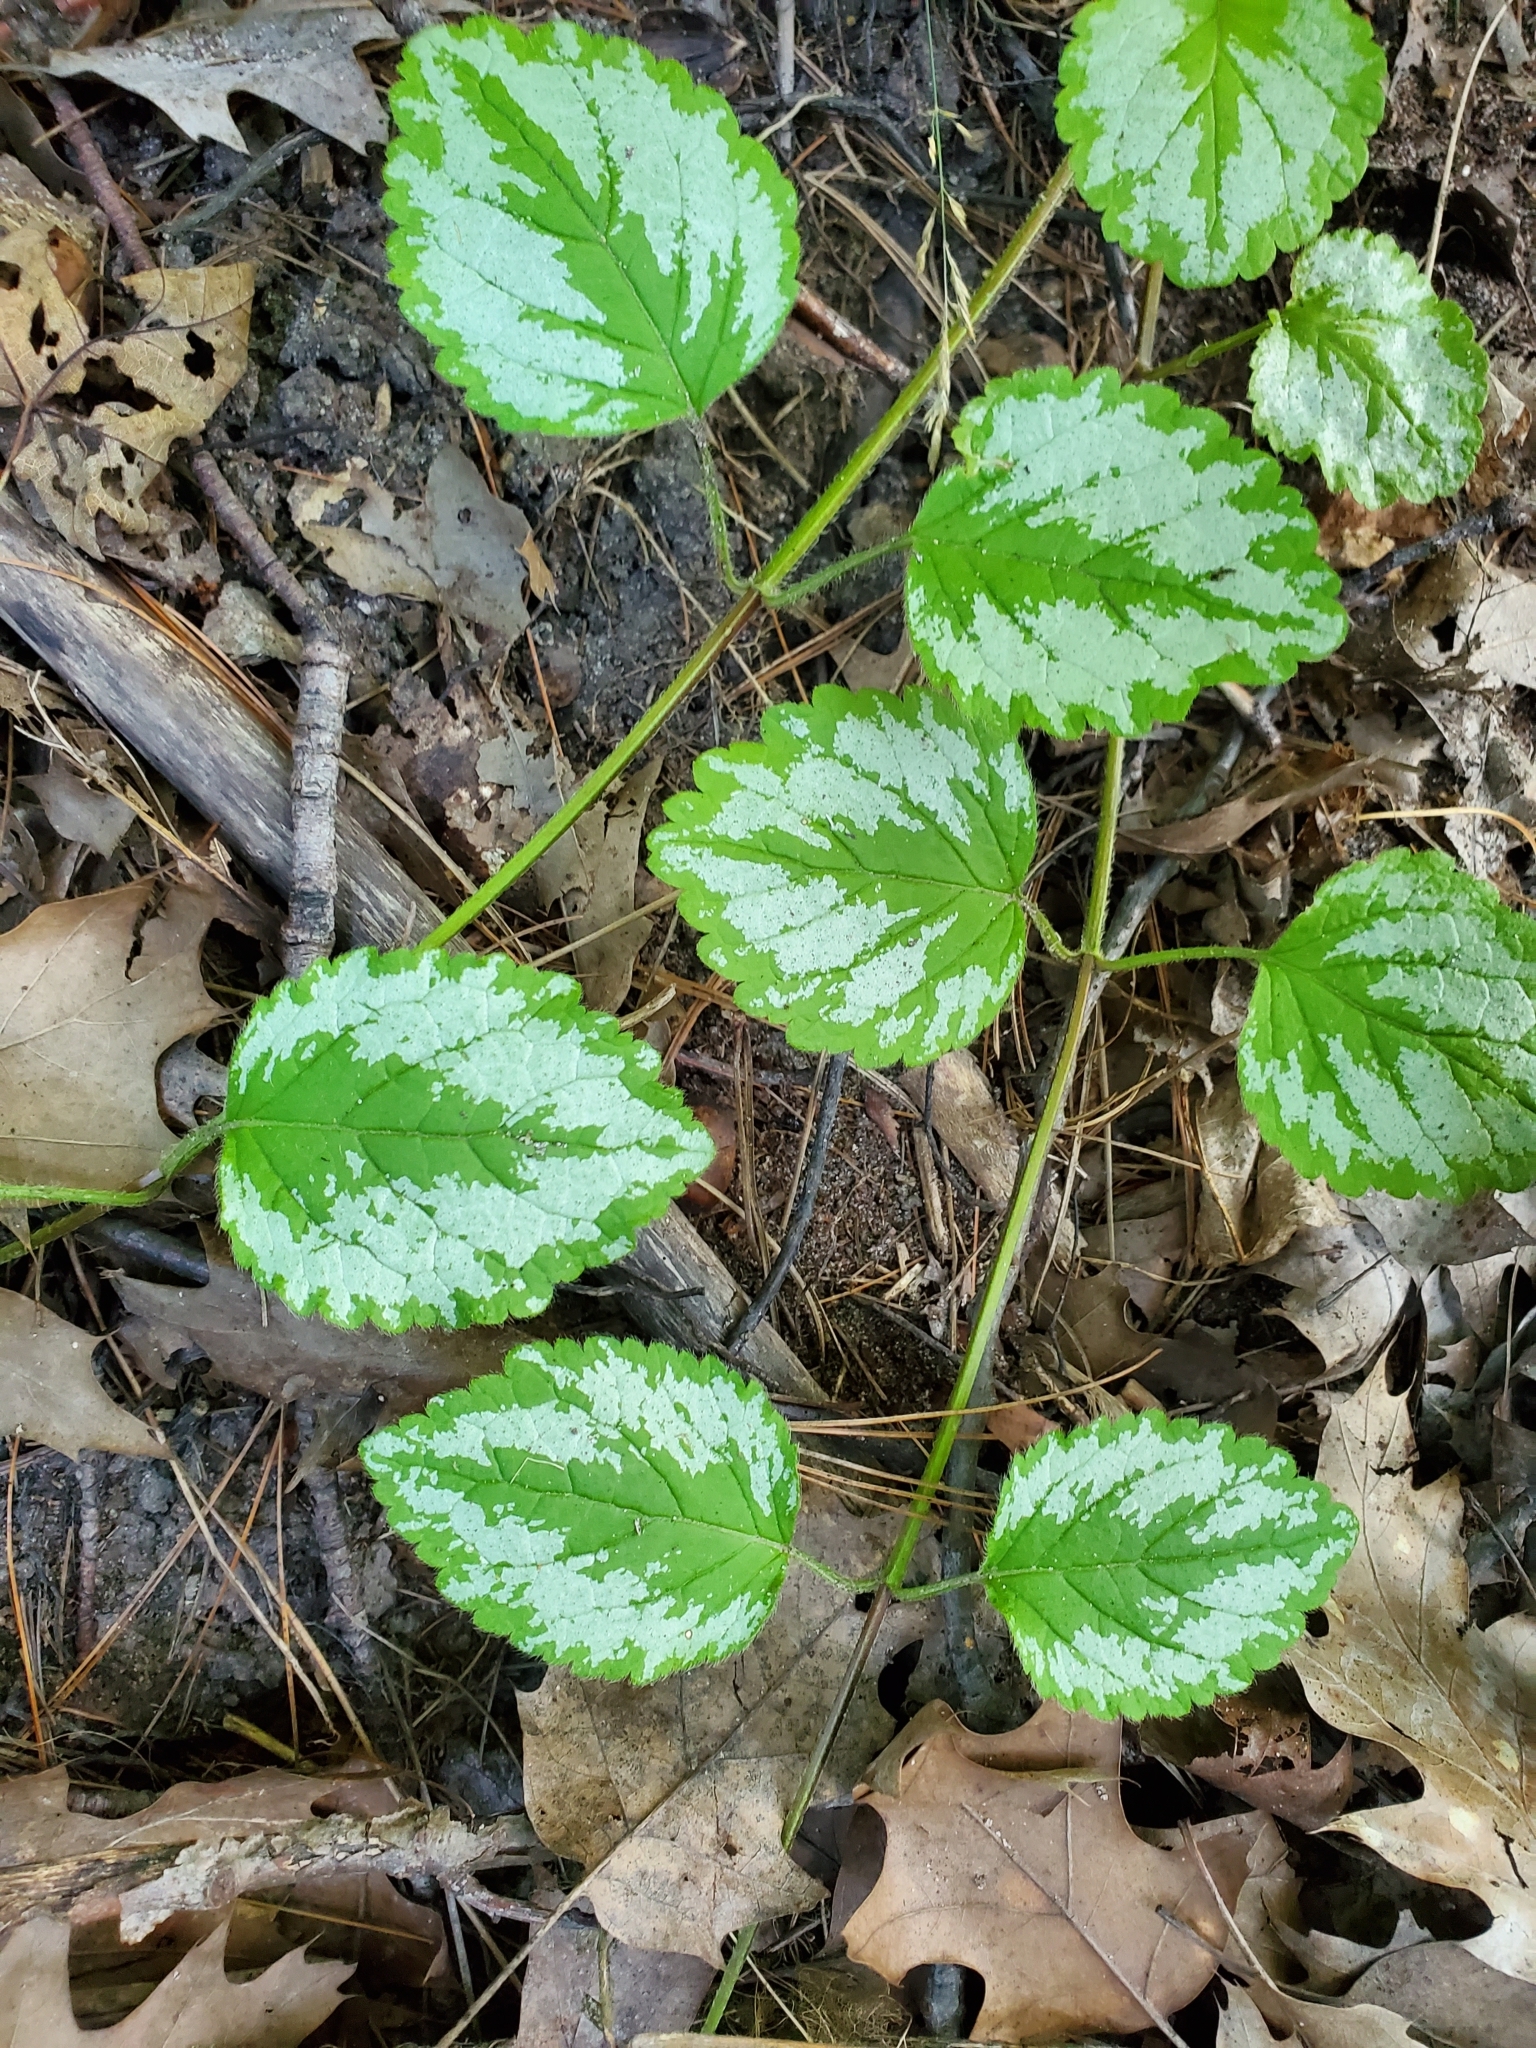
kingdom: Plantae
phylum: Tracheophyta
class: Magnoliopsida
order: Lamiales
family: Lamiaceae
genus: Lamium
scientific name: Lamium galeobdolon
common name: Yellow archangel
